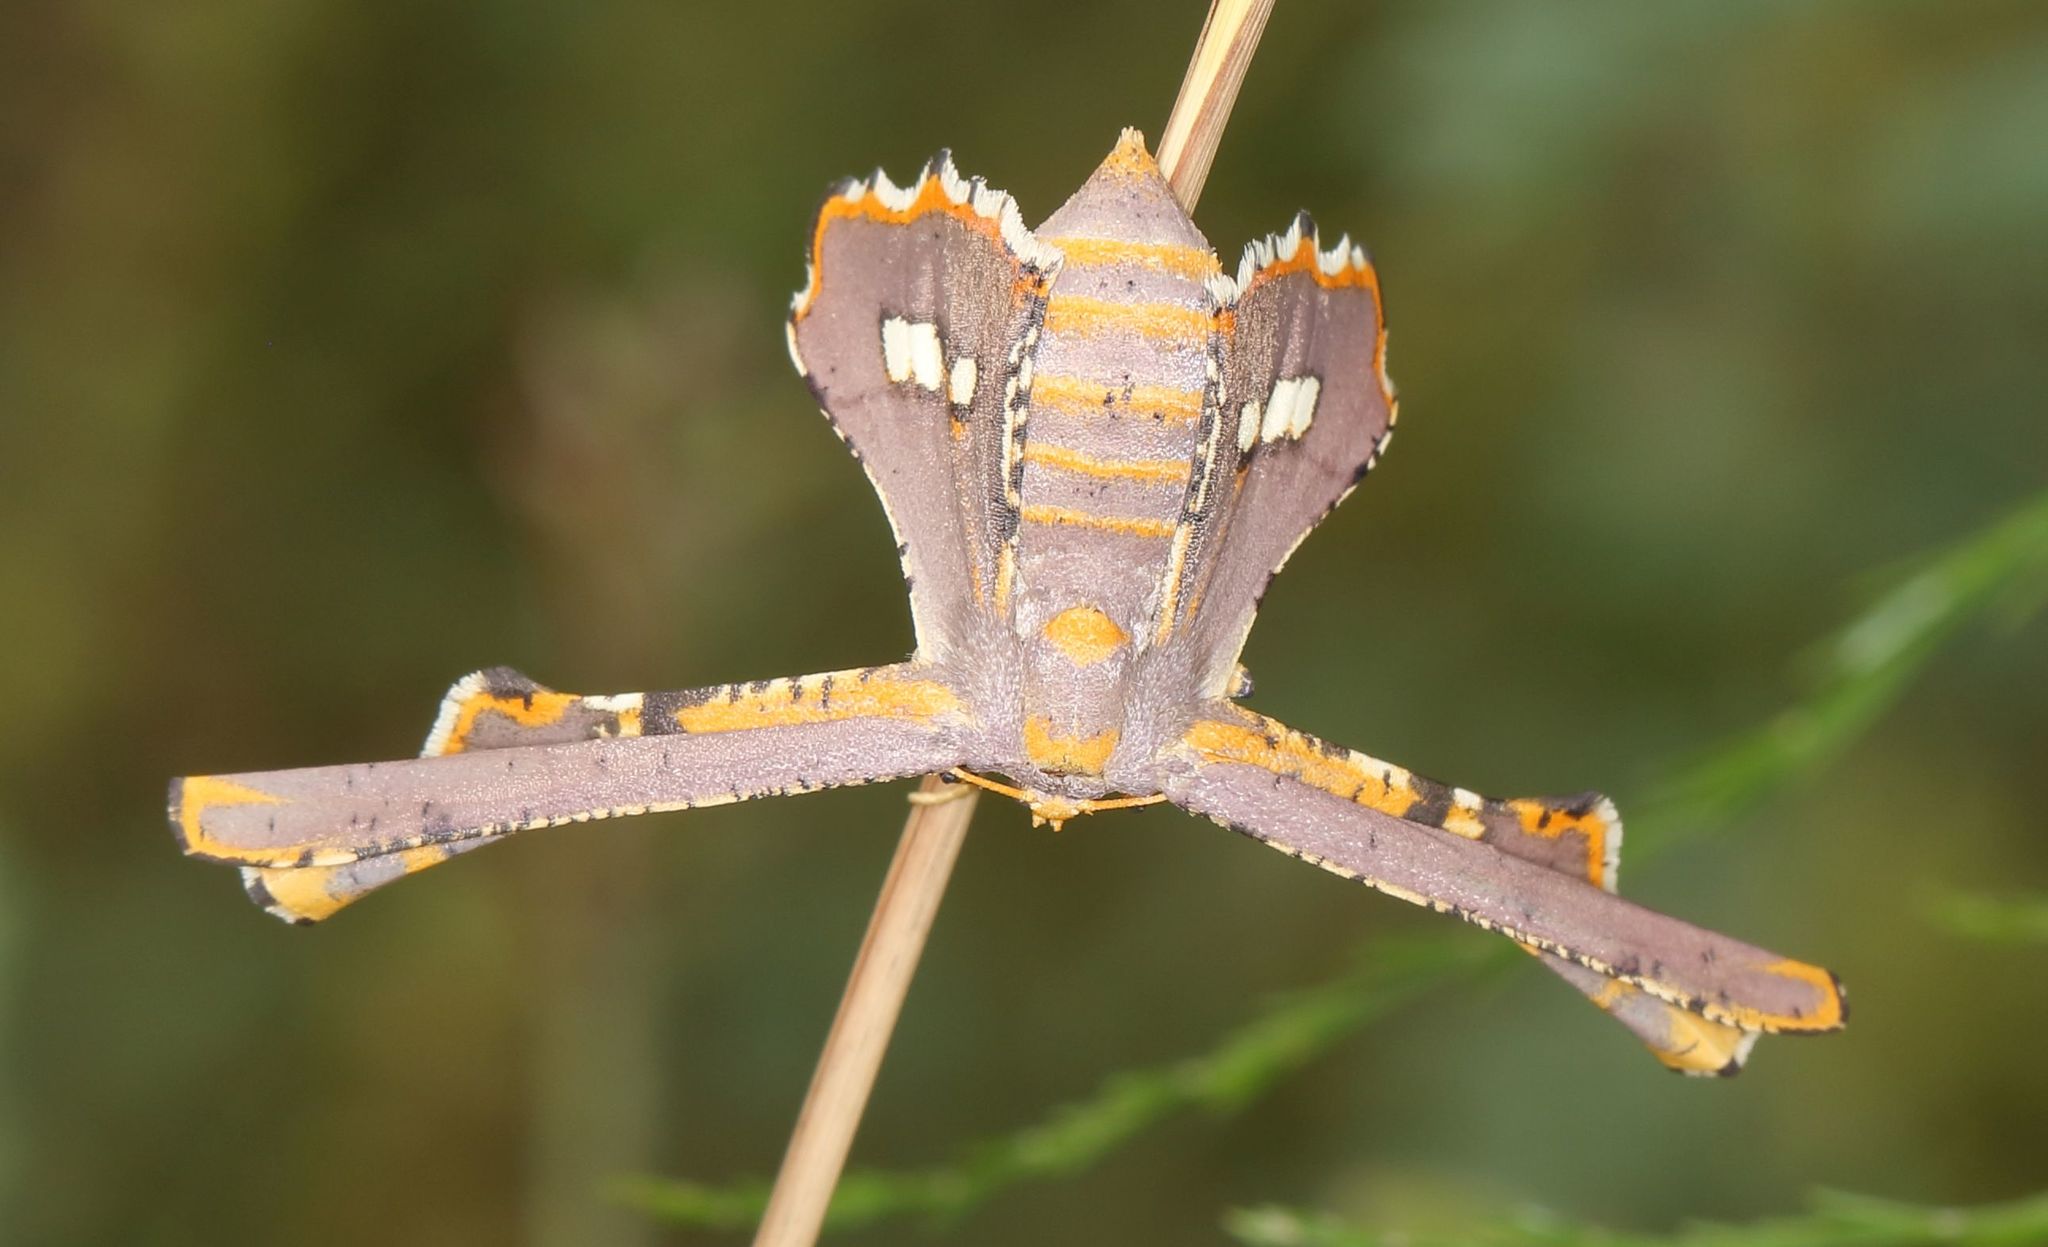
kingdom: Animalia
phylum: Arthropoda
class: Insecta
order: Lepidoptera
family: Geometridae
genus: Coenina
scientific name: Coenina poecilaria
